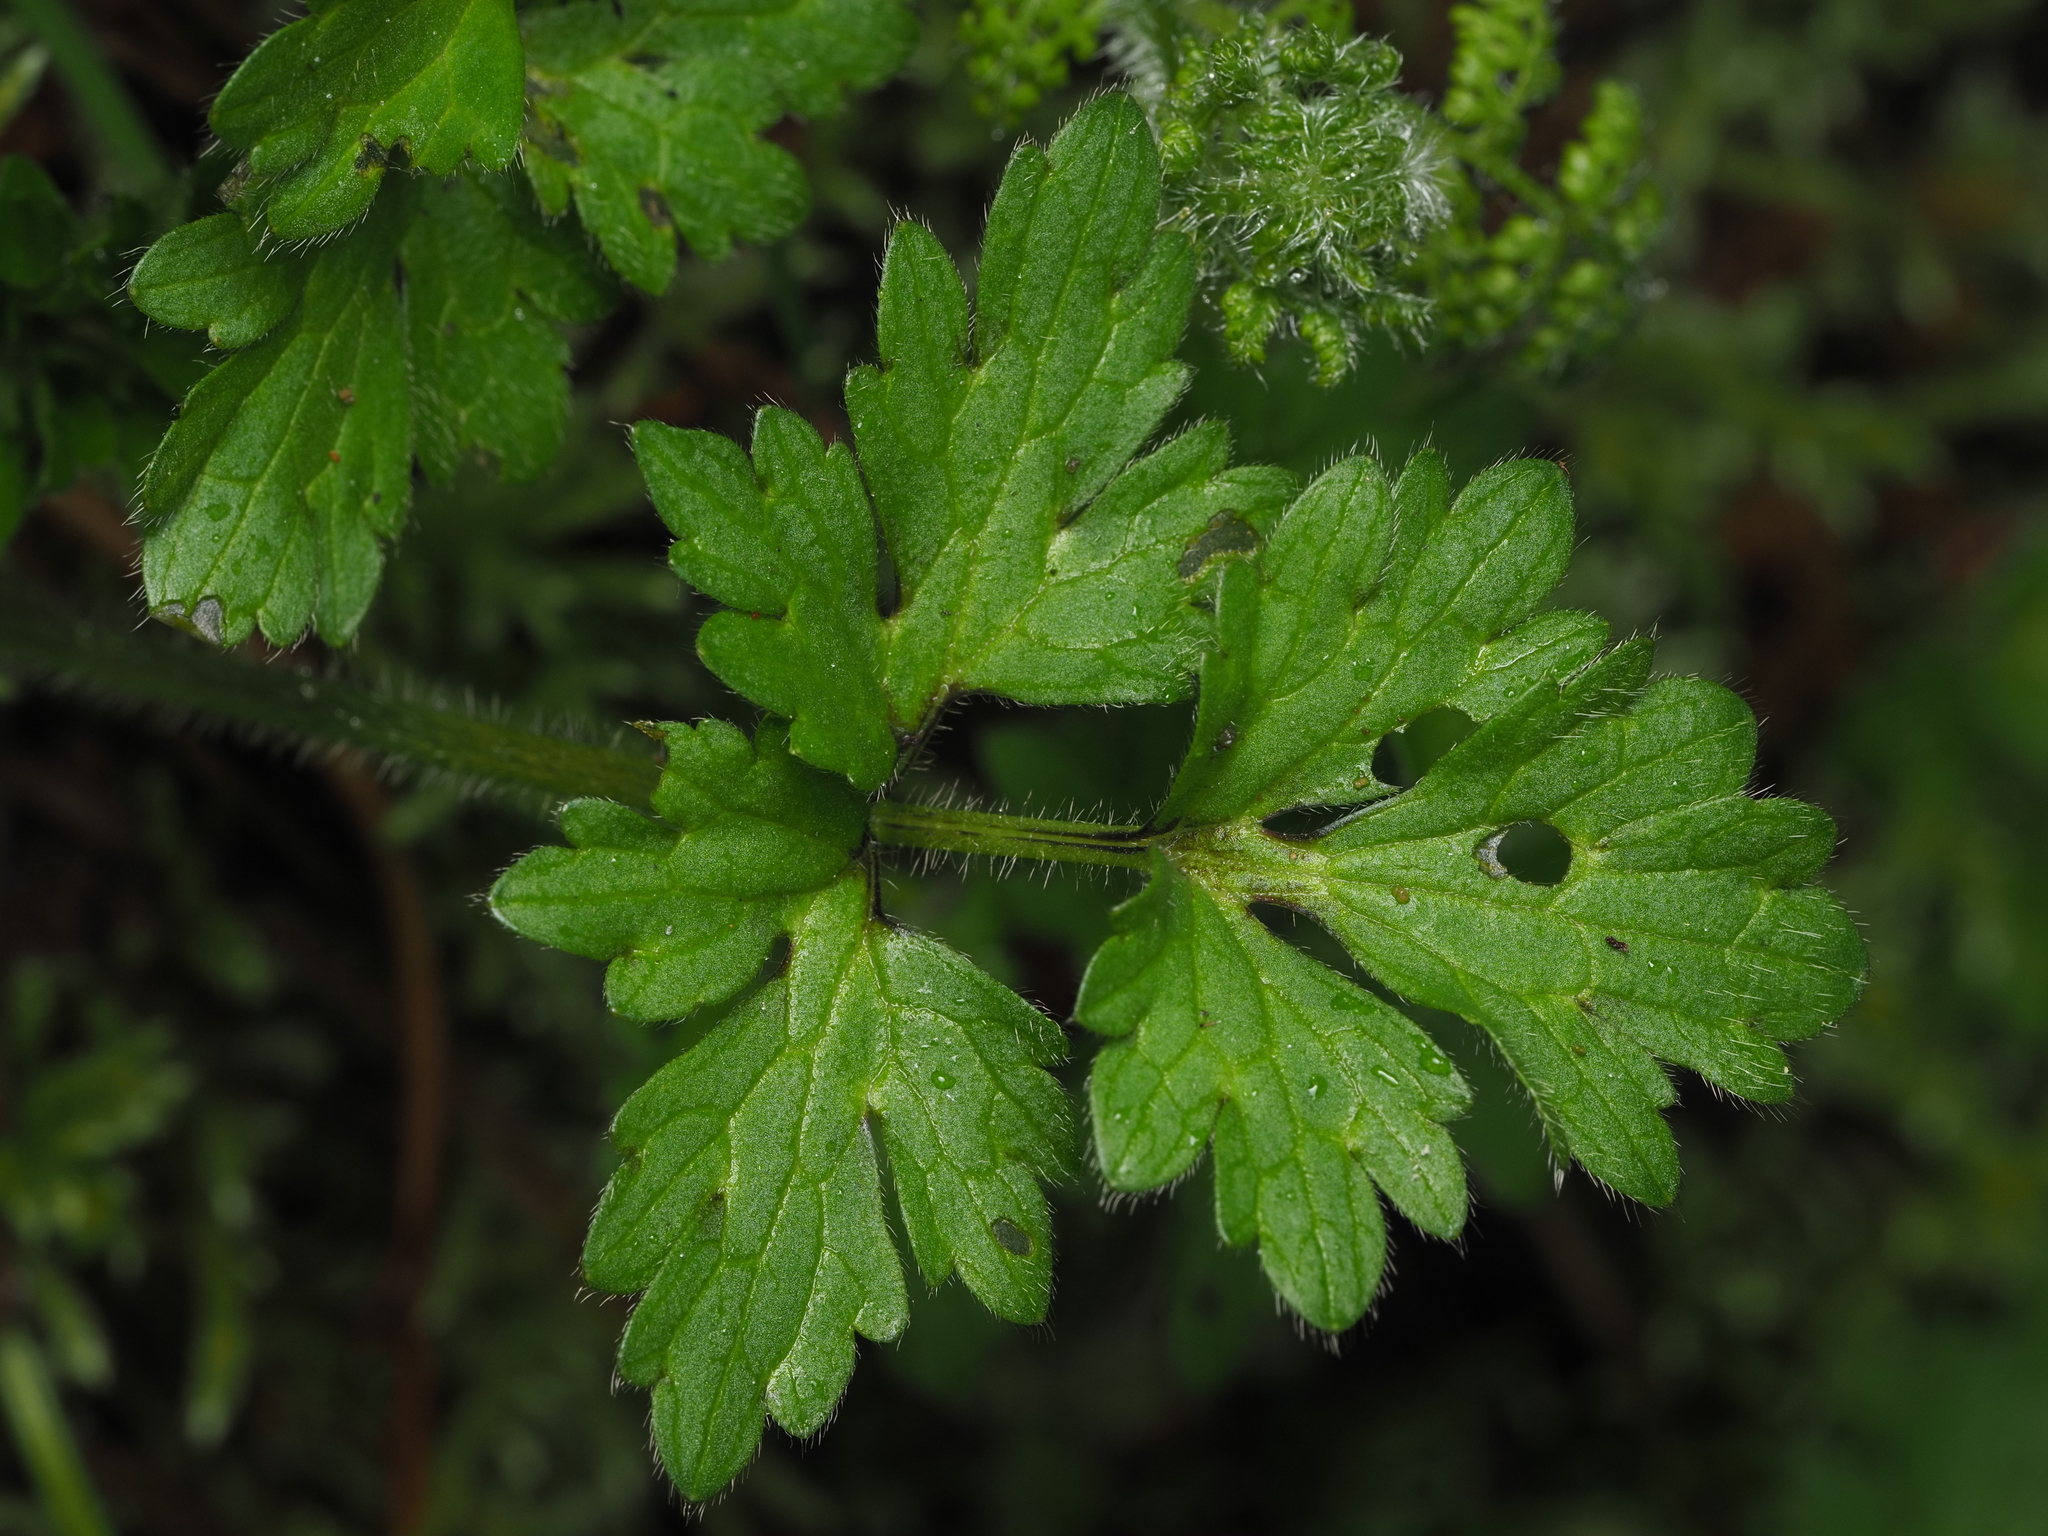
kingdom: Plantae
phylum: Tracheophyta
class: Magnoliopsida
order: Ranunculales
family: Ranunculaceae
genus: Ranunculus
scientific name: Ranunculus repens
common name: Creeping buttercup
